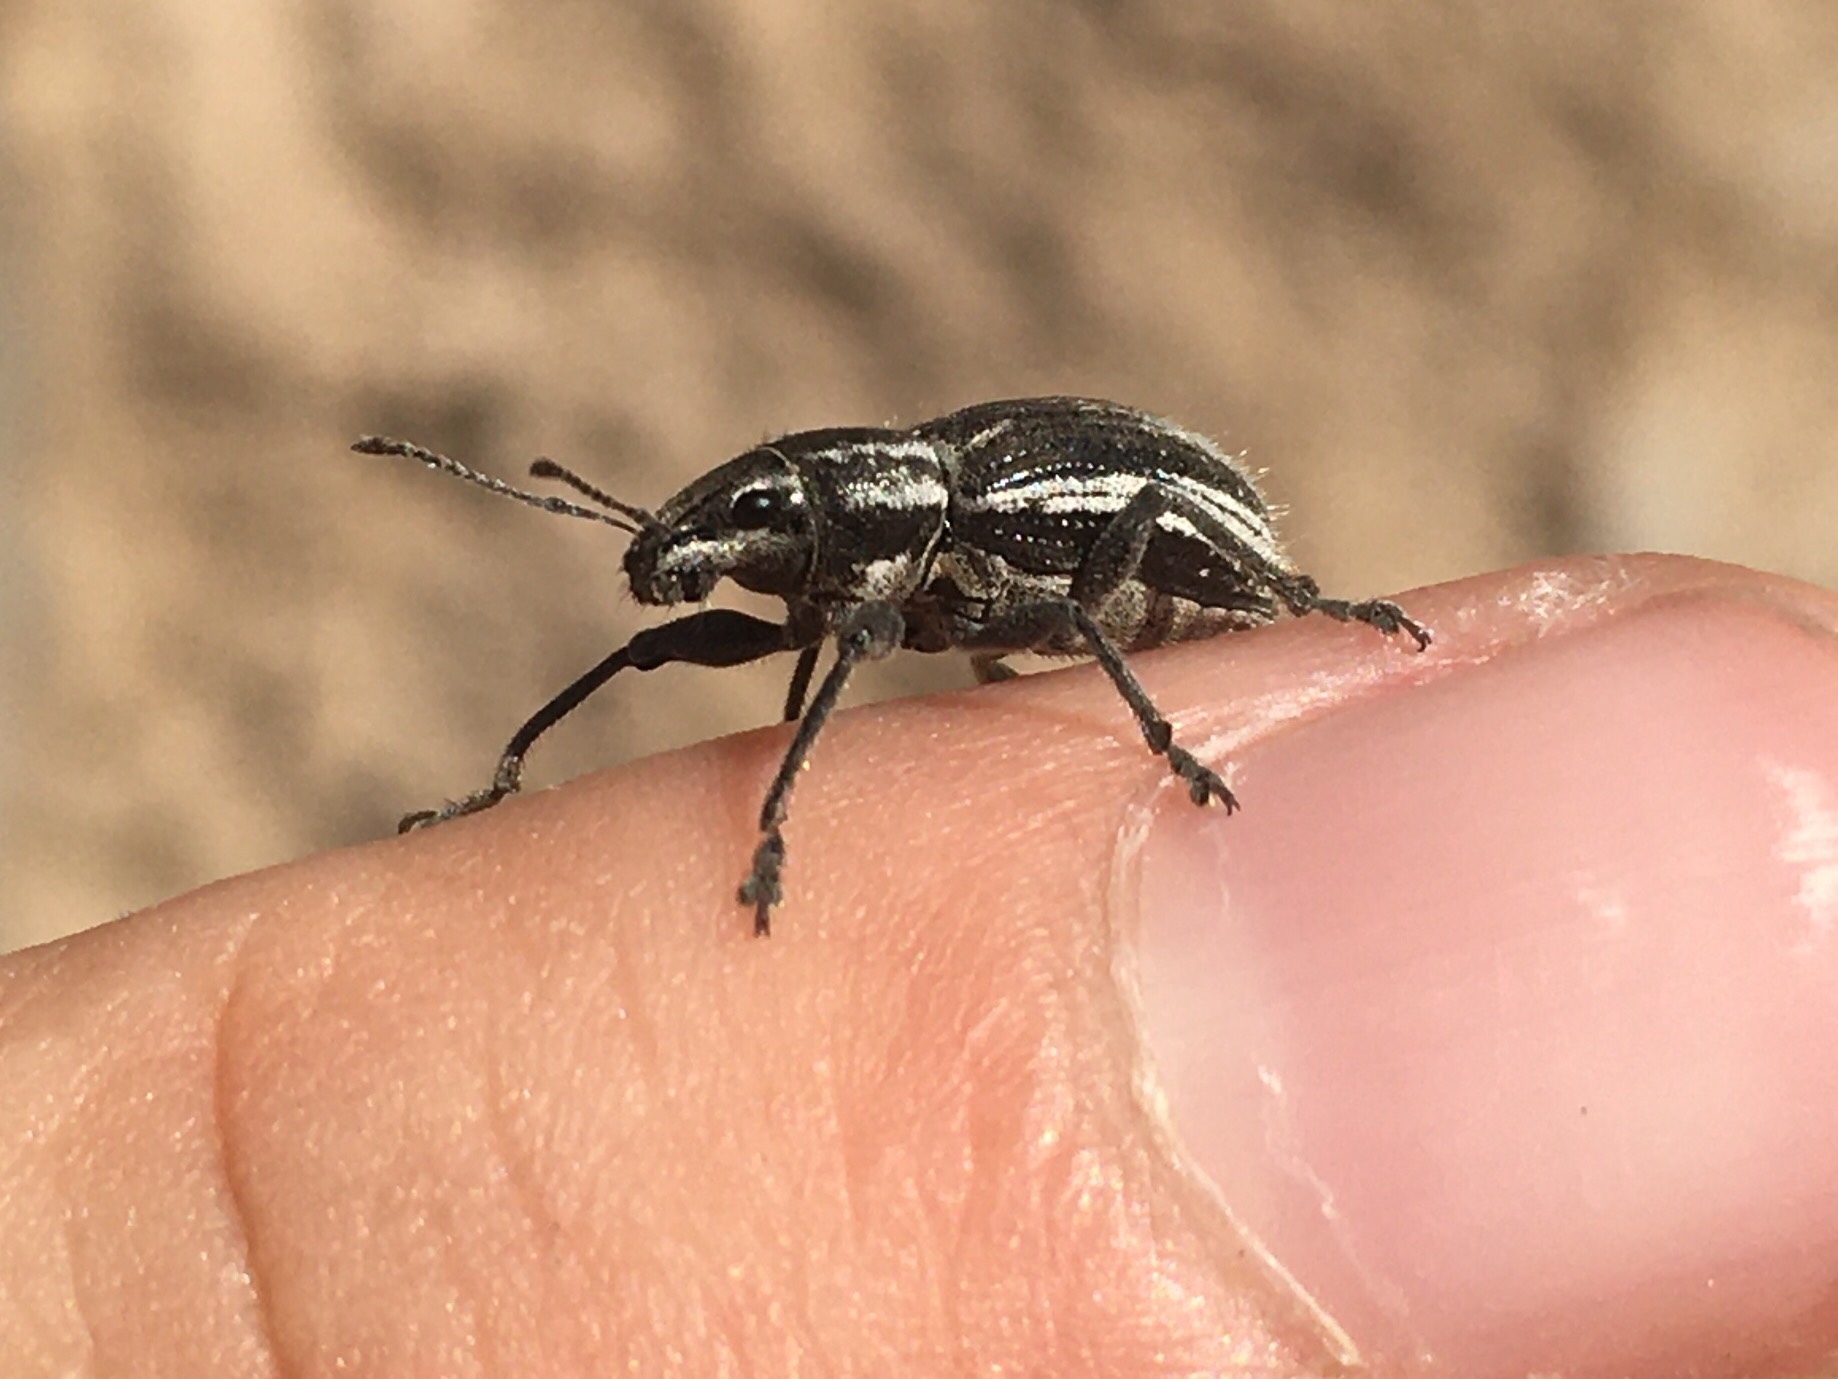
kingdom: Animalia
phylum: Arthropoda
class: Insecta
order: Coleoptera
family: Curculionidae
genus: Naupactus
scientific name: Naupactus leucoloma
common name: Whitefringed beetle
